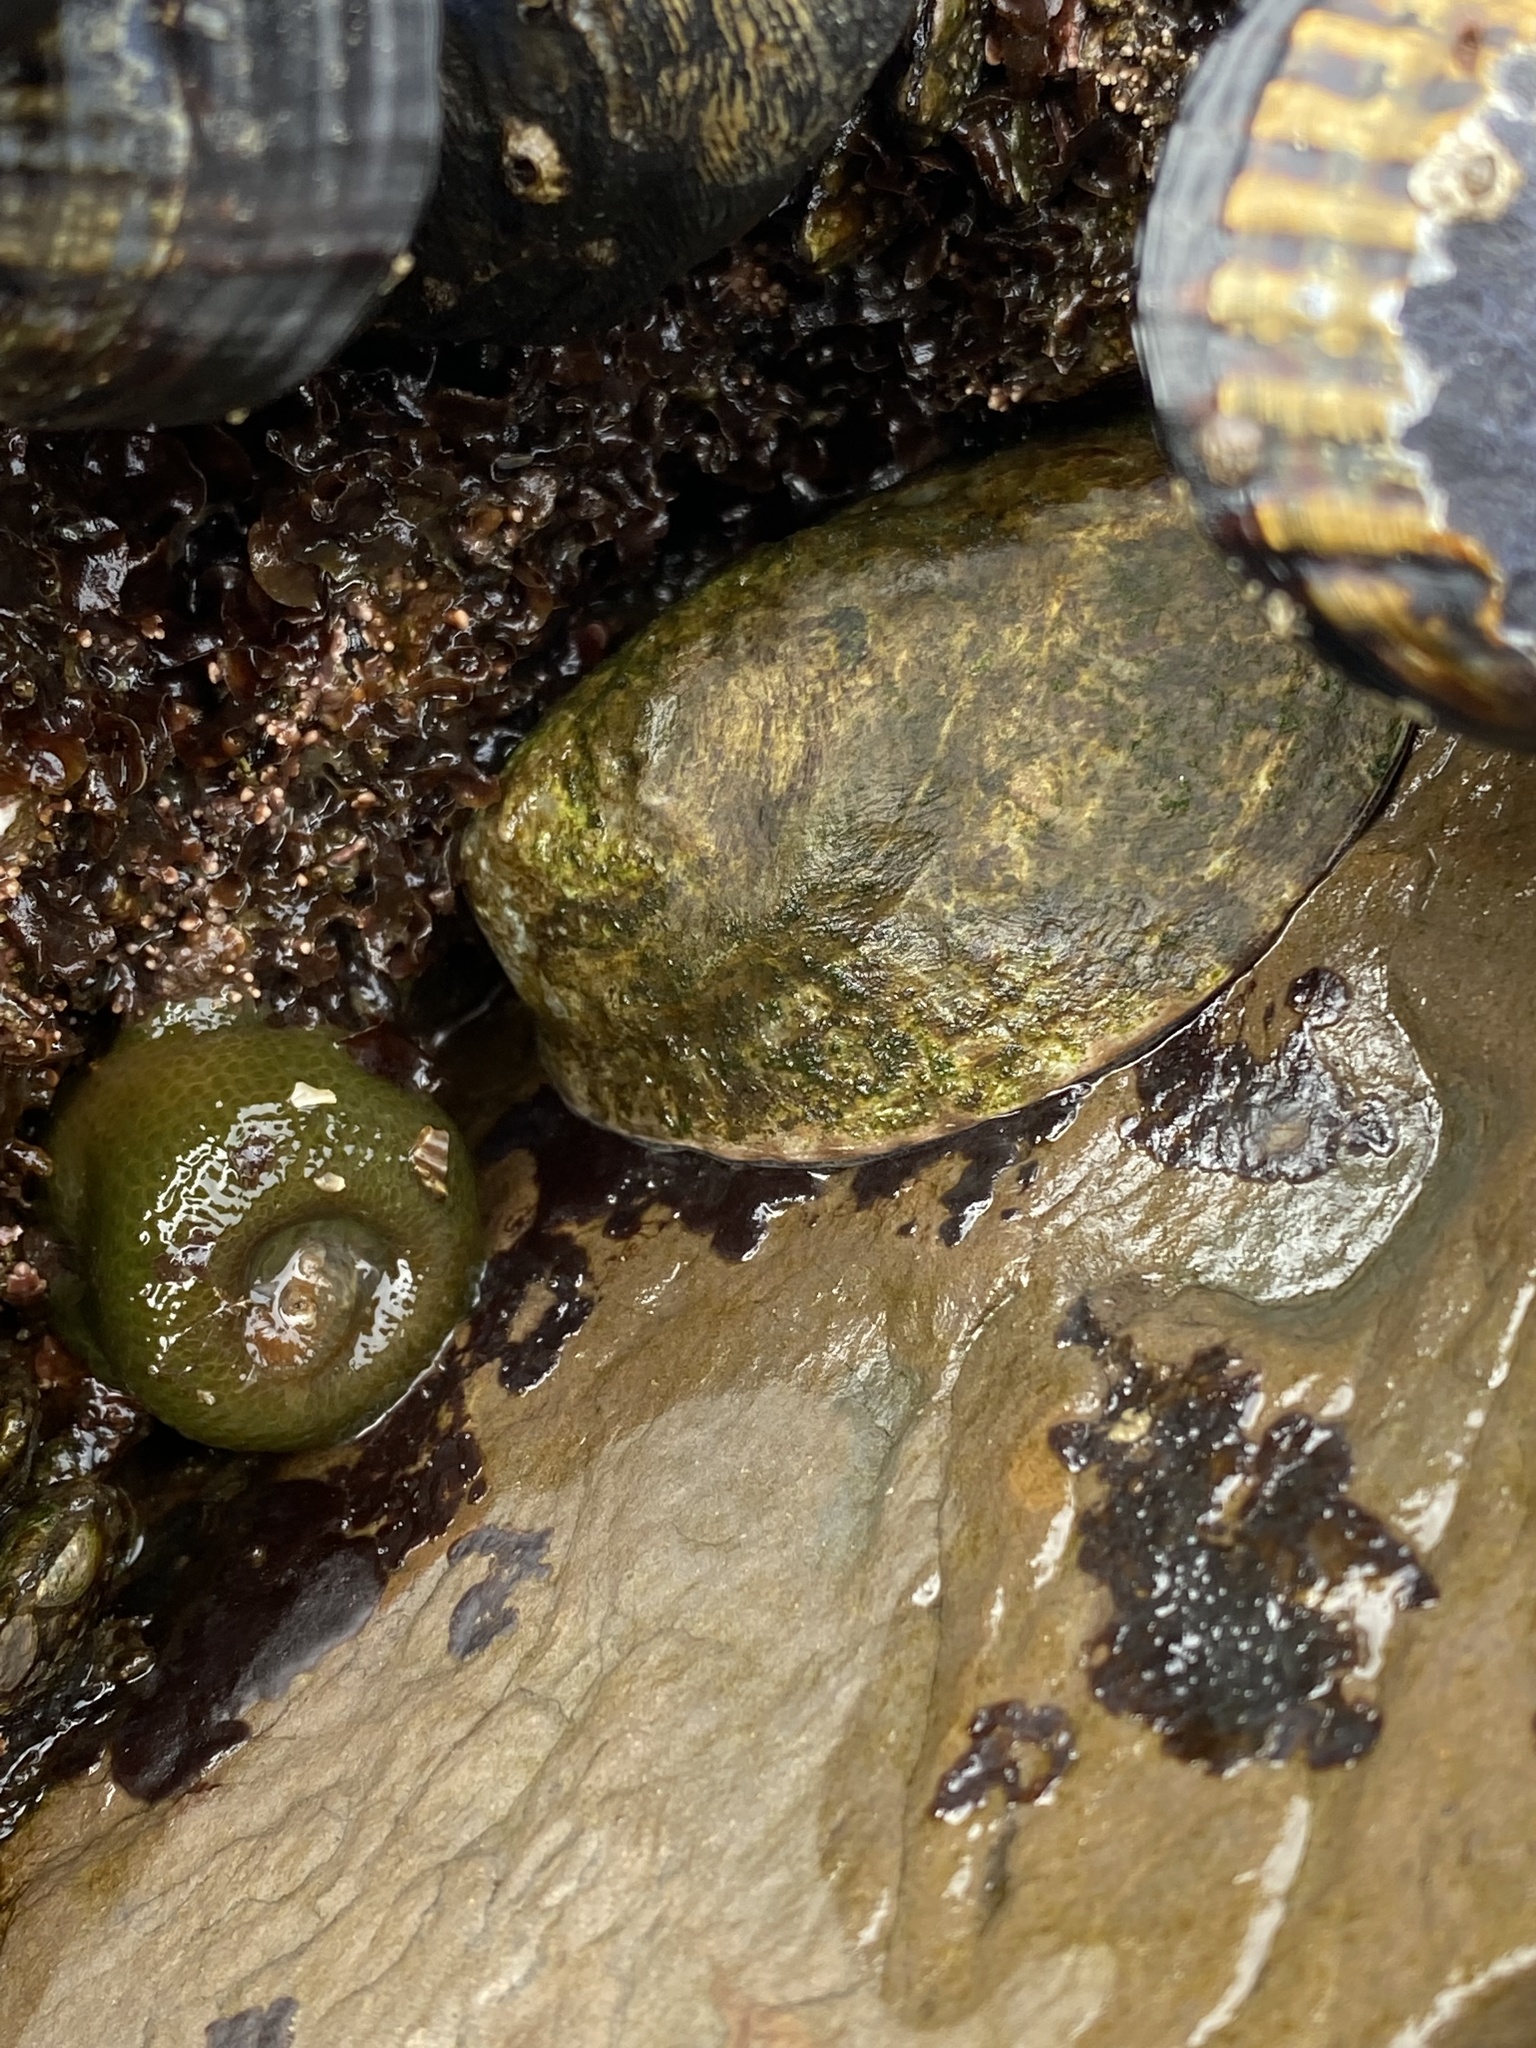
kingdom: Animalia
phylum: Mollusca
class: Gastropoda
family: Lottiidae
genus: Lottia
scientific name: Lottia gigantea
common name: Owl limpet
